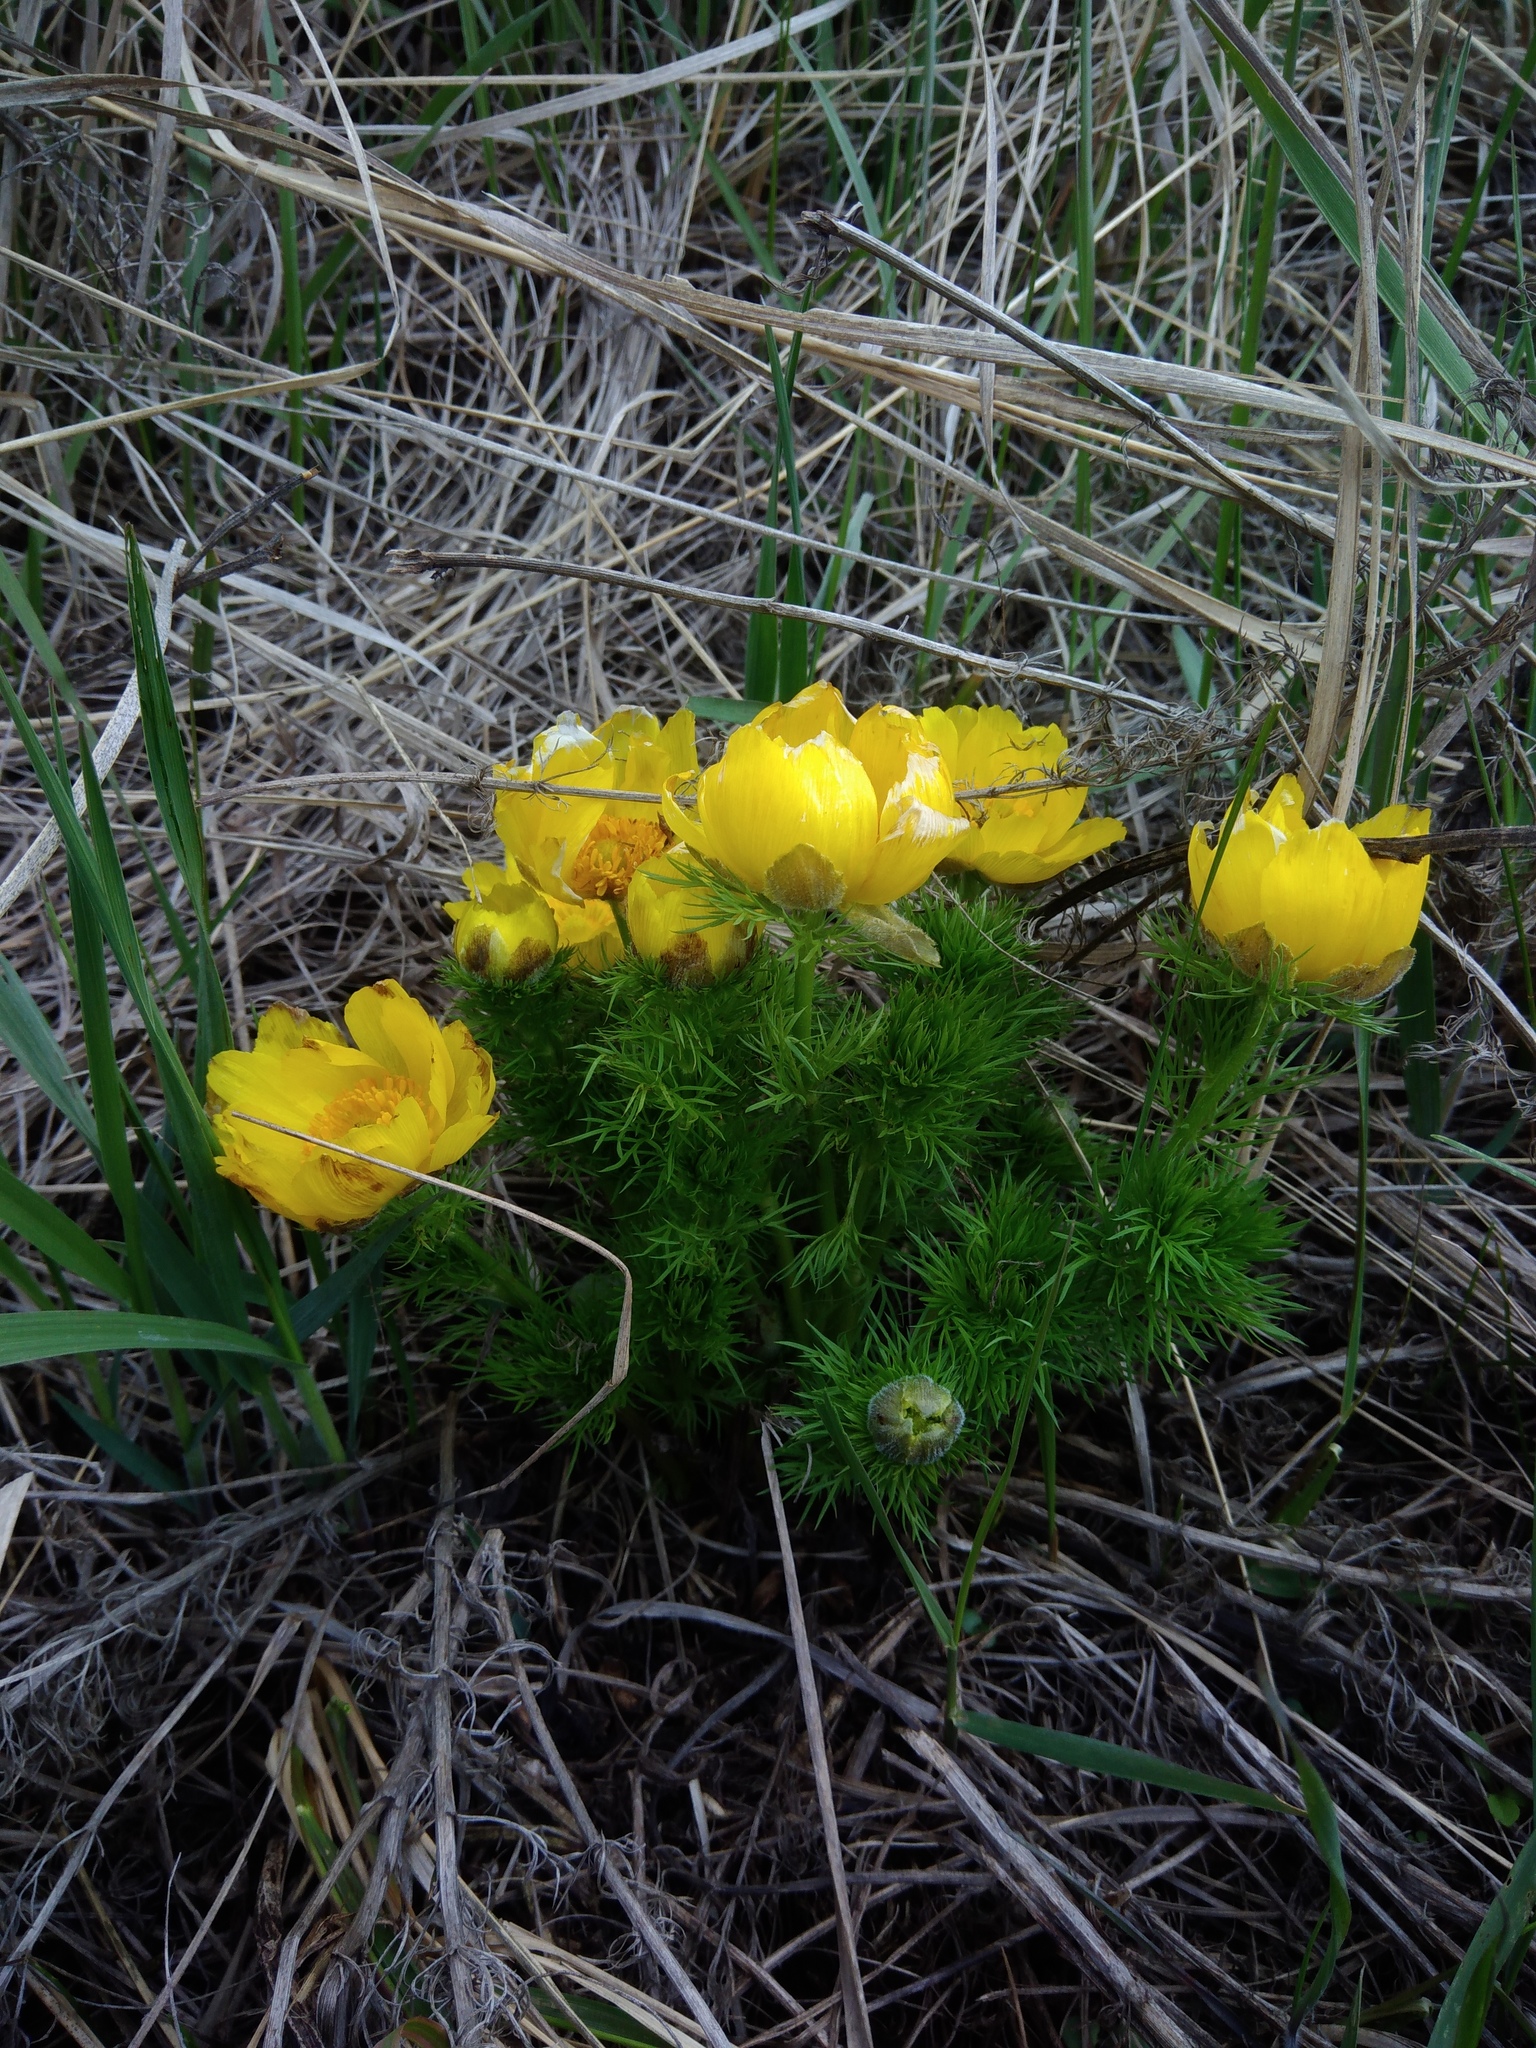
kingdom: Plantae
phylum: Tracheophyta
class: Magnoliopsida
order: Ranunculales
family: Ranunculaceae
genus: Adonis
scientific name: Adonis vernalis
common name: Yellow pheasants-eye
